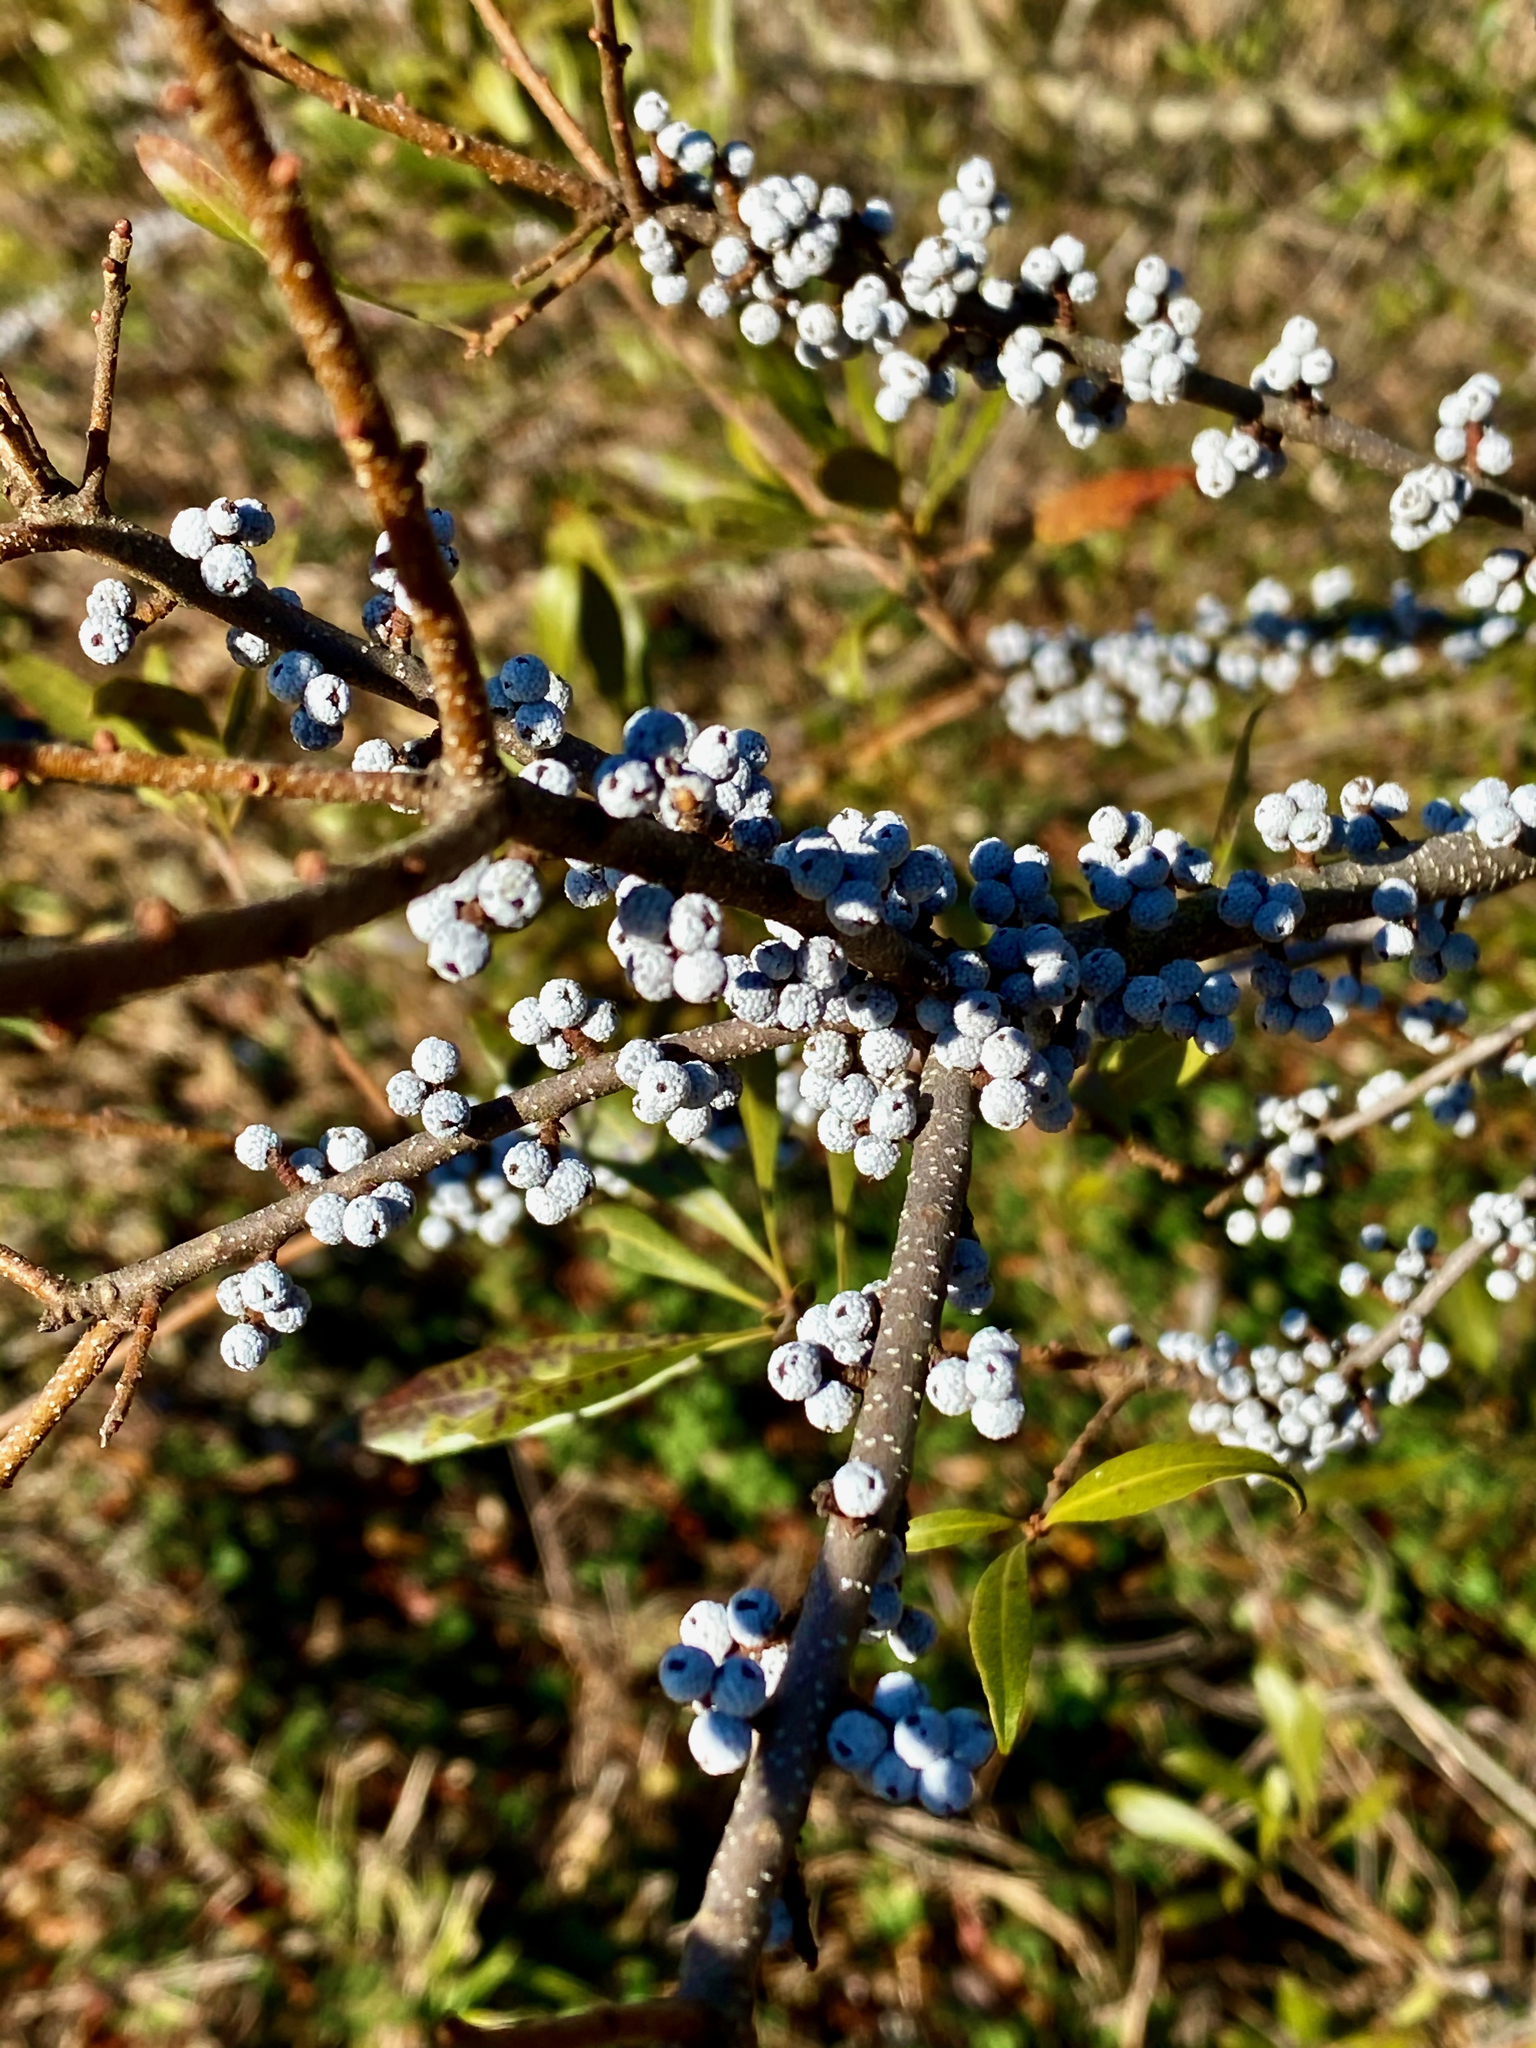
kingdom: Plantae
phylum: Tracheophyta
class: Magnoliopsida
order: Fagales
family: Myricaceae
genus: Morella
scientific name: Morella pensylvanica
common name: Northern bayberry
